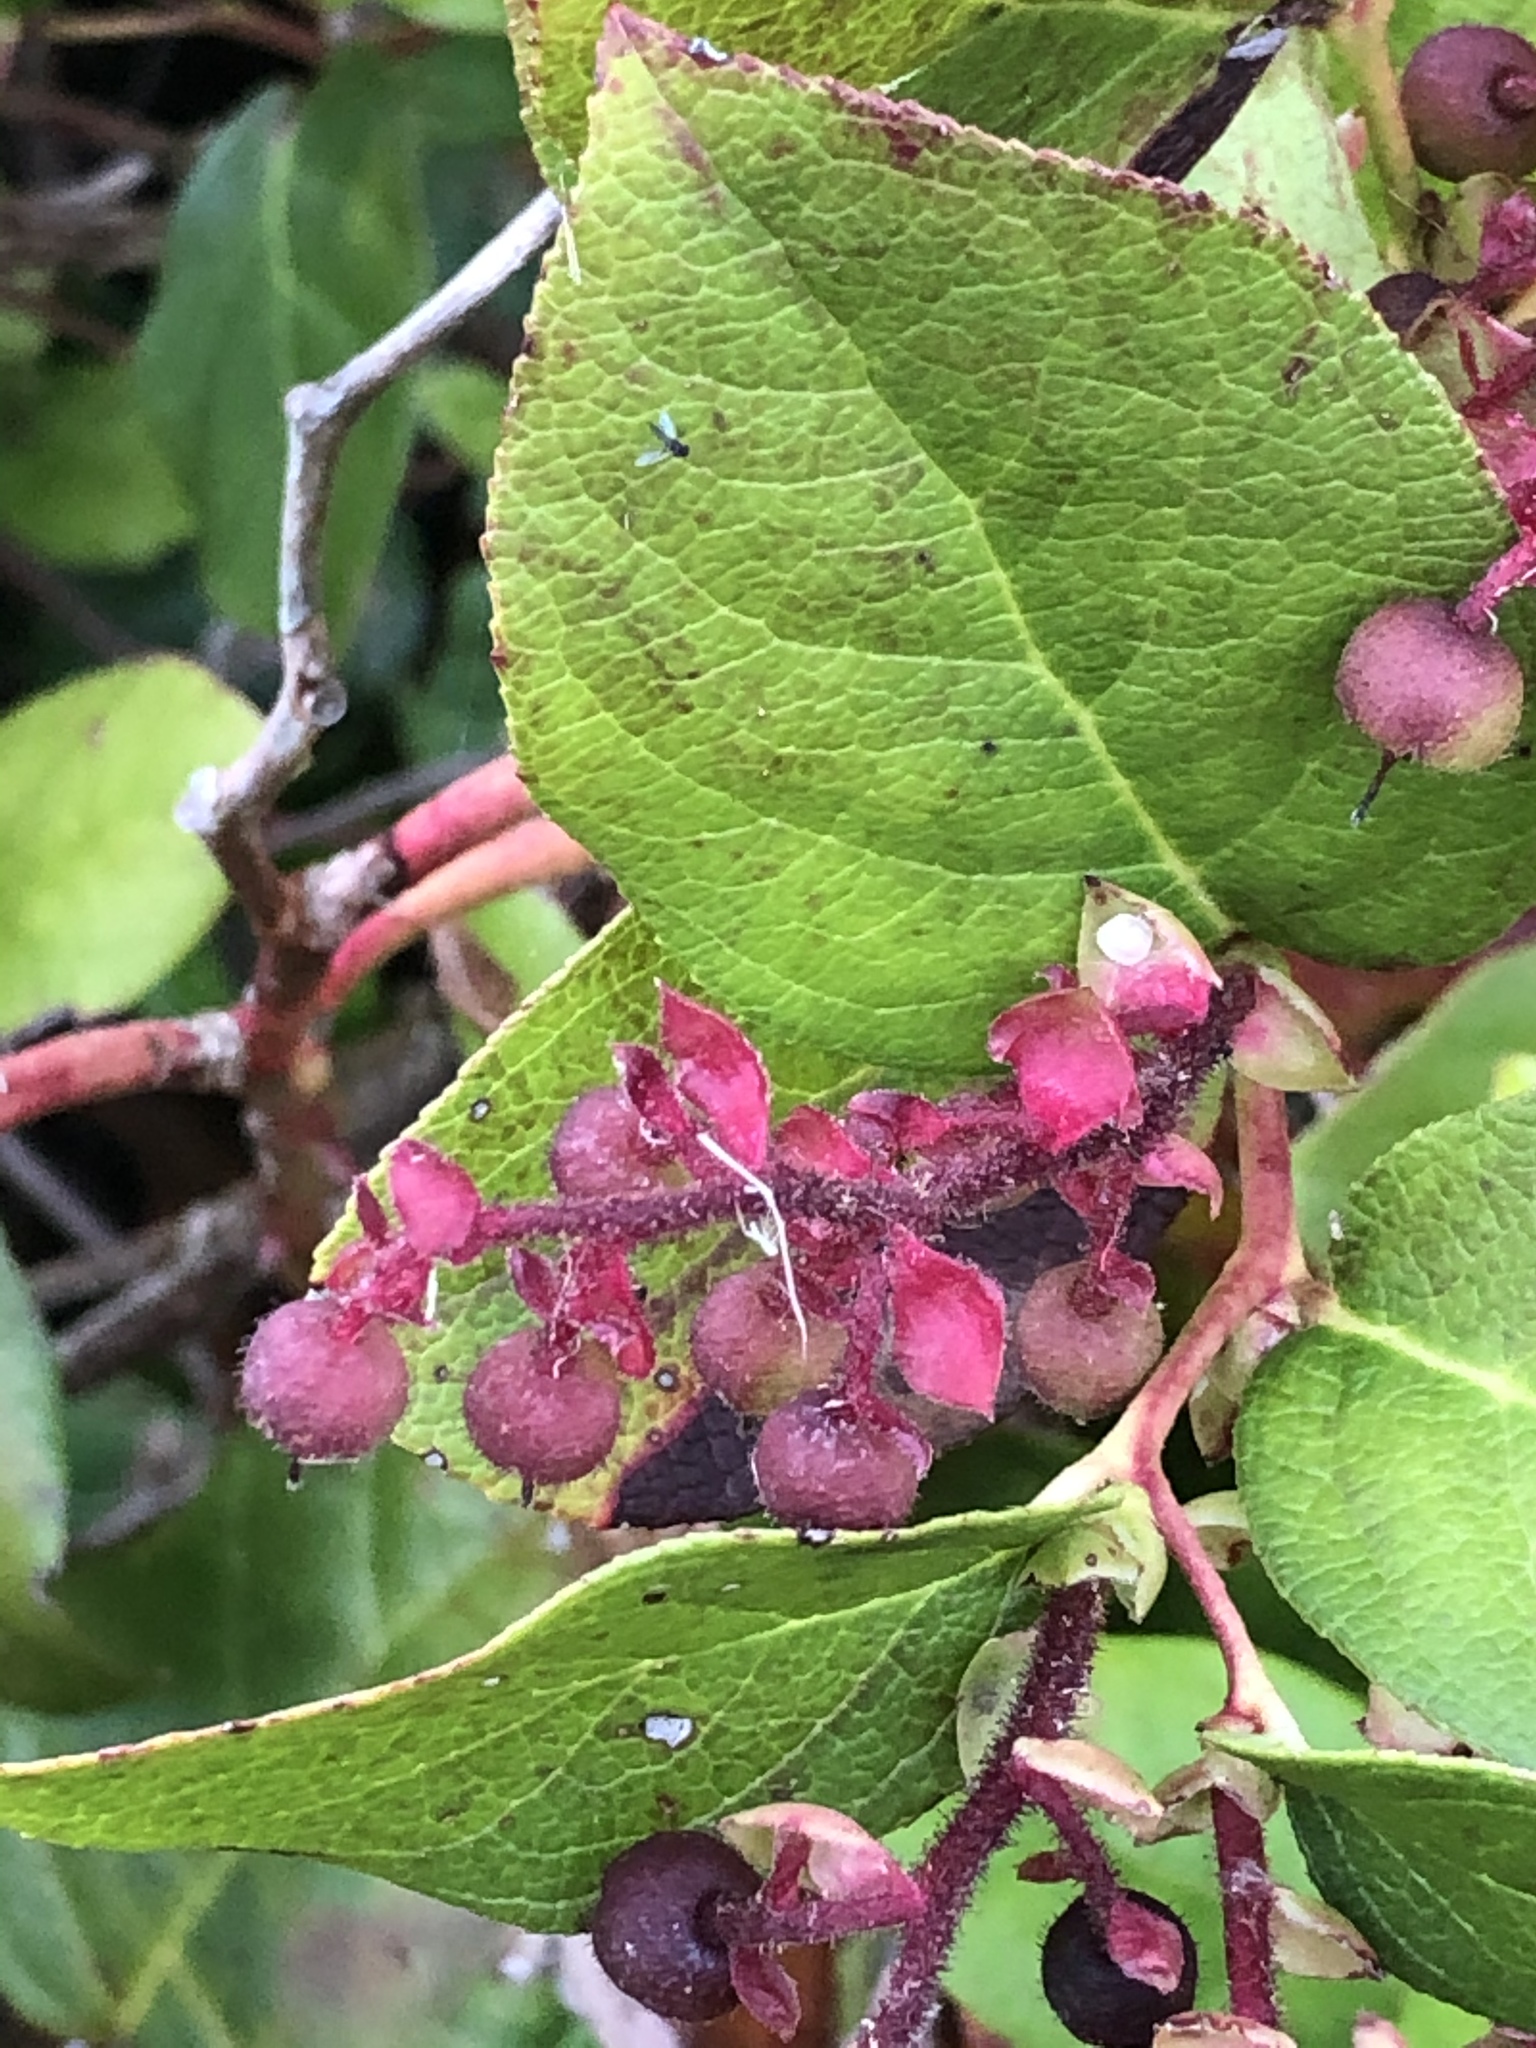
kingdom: Plantae
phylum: Tracheophyta
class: Magnoliopsida
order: Ericales
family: Ericaceae
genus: Gaultheria
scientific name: Gaultheria shallon
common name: Shallon
